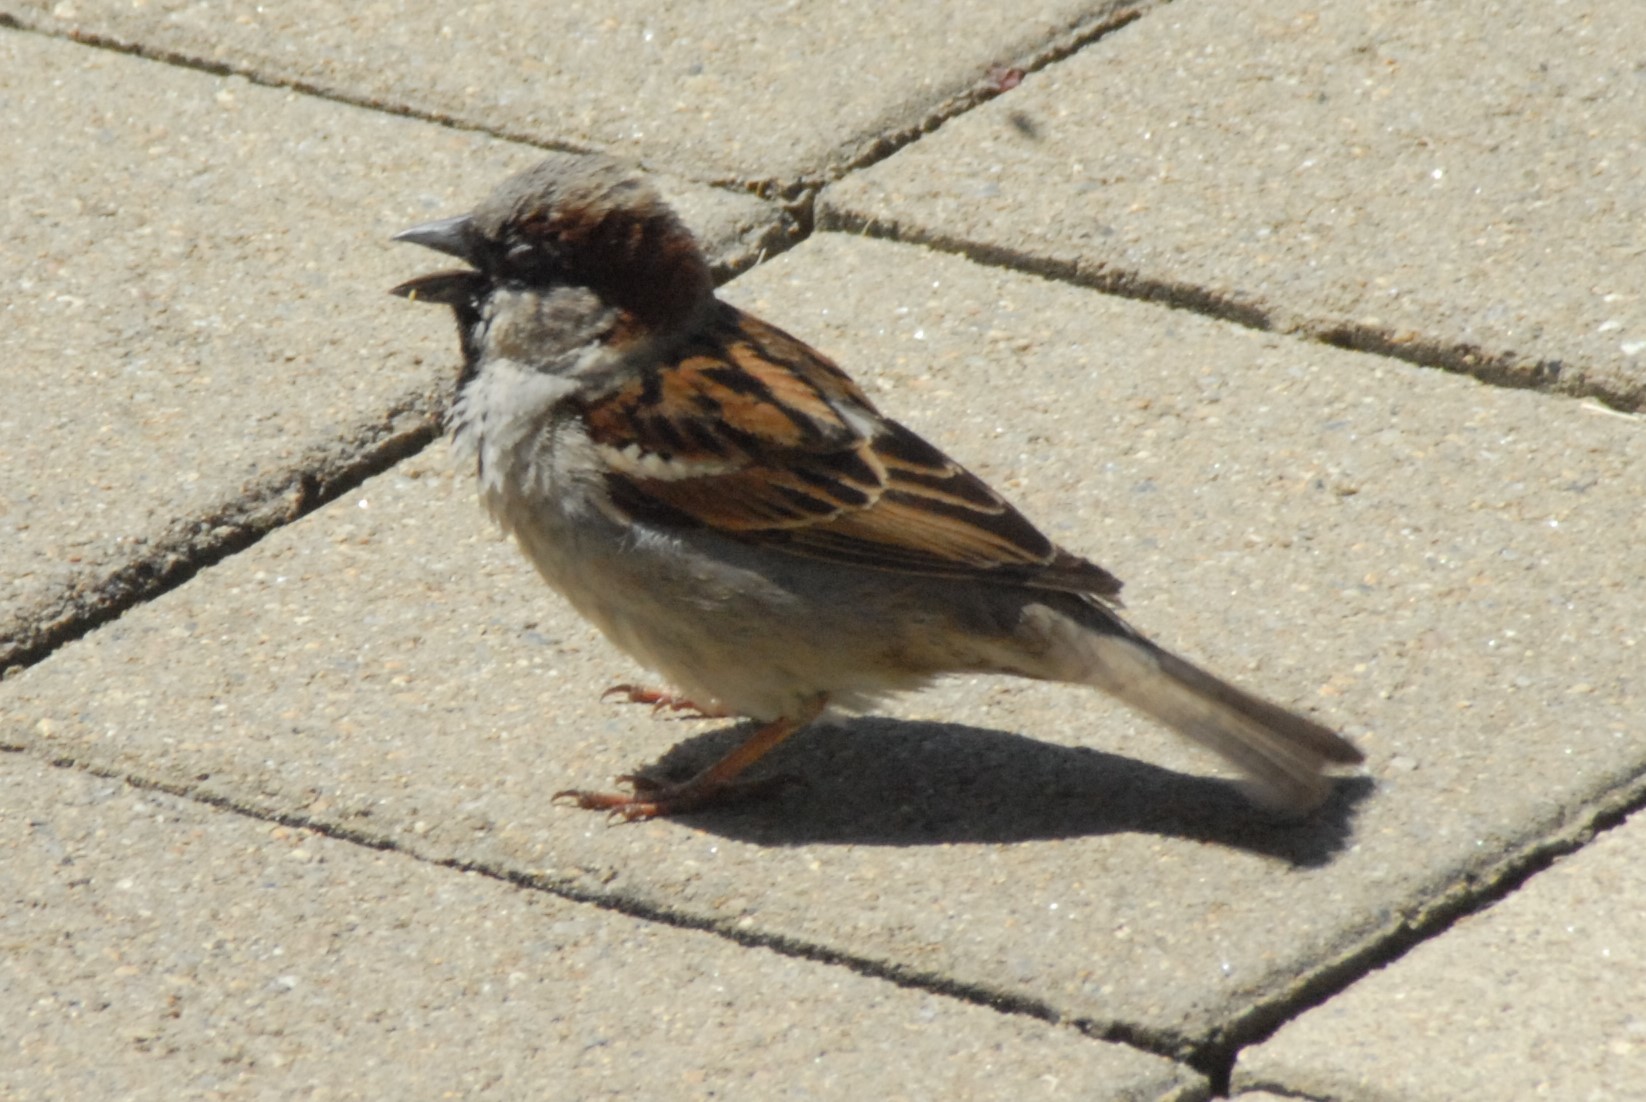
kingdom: Animalia
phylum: Chordata
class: Aves
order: Passeriformes
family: Passeridae
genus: Passer
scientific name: Passer domesticus
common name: House sparrow
